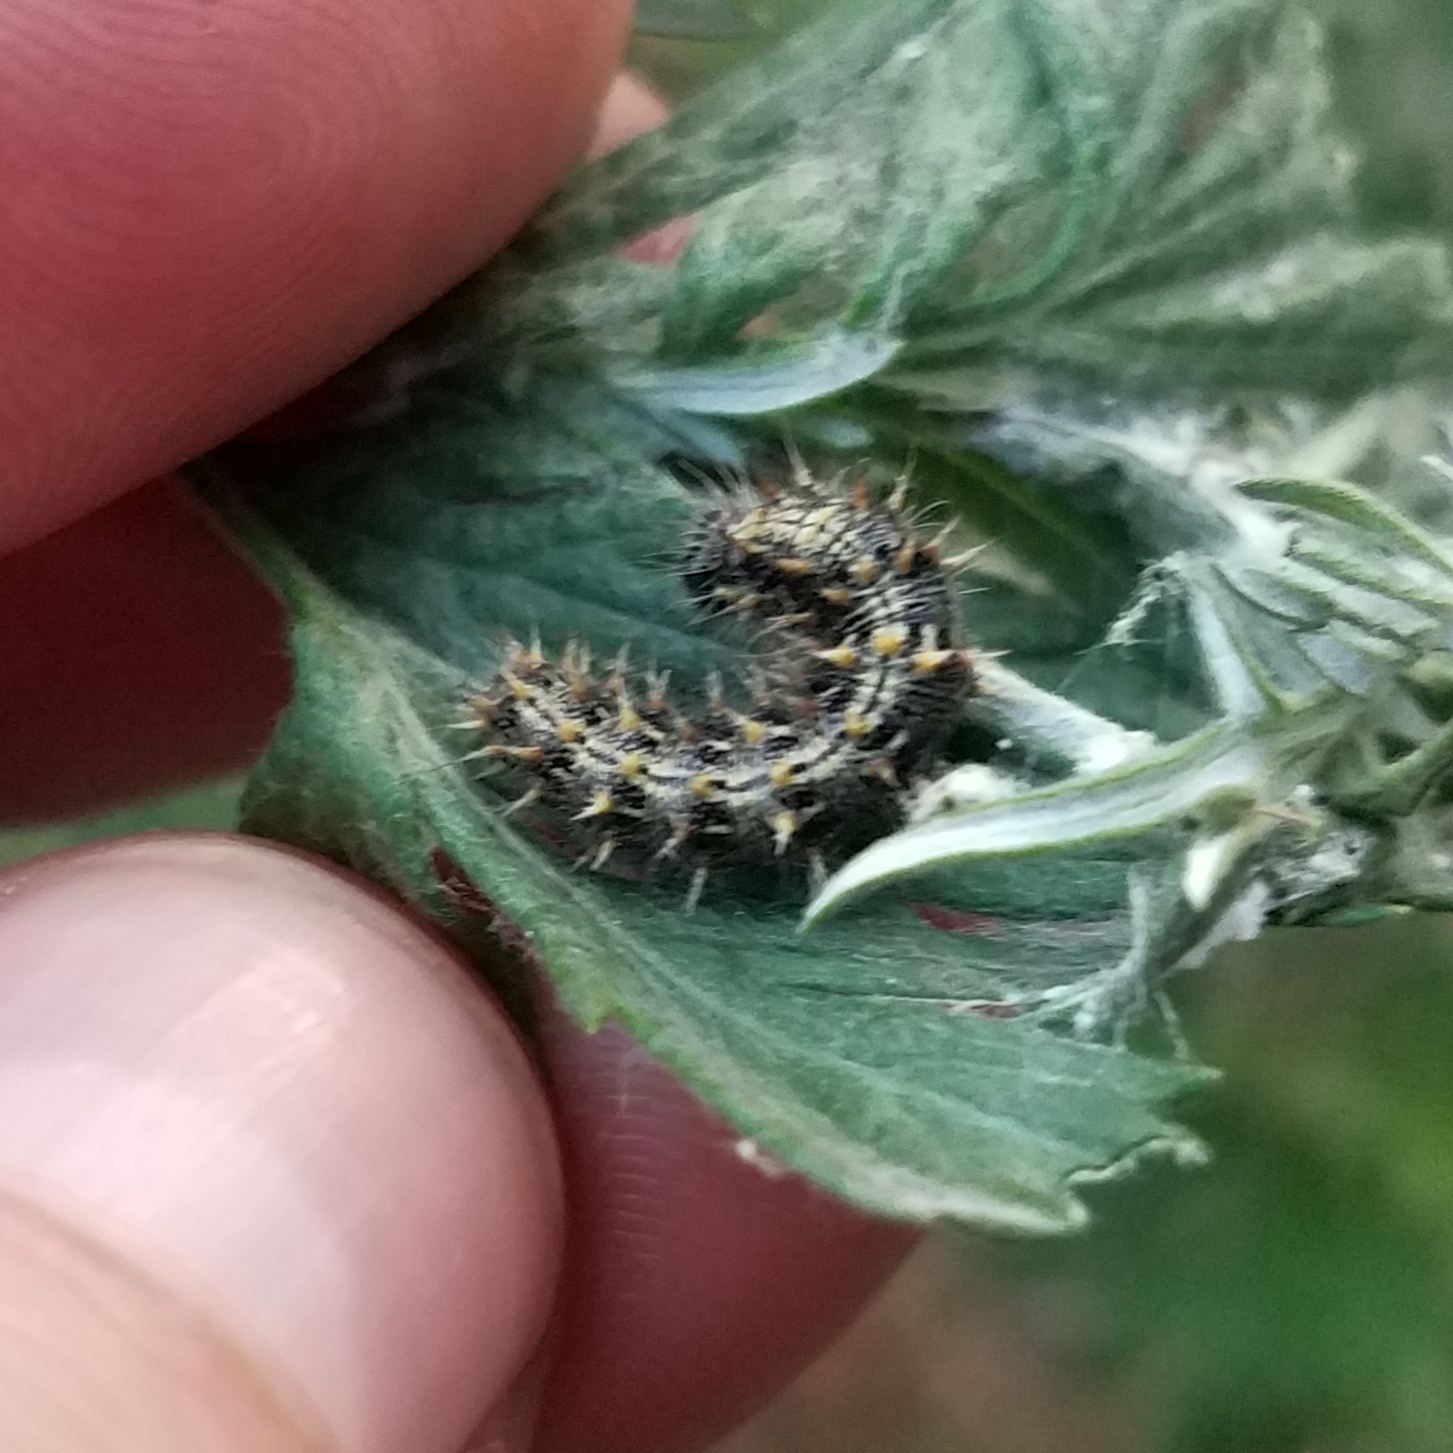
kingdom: Animalia
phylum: Arthropoda
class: Insecta
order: Lepidoptera
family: Nymphalidae
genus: Vanessa
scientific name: Vanessa cardui
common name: Painted lady
